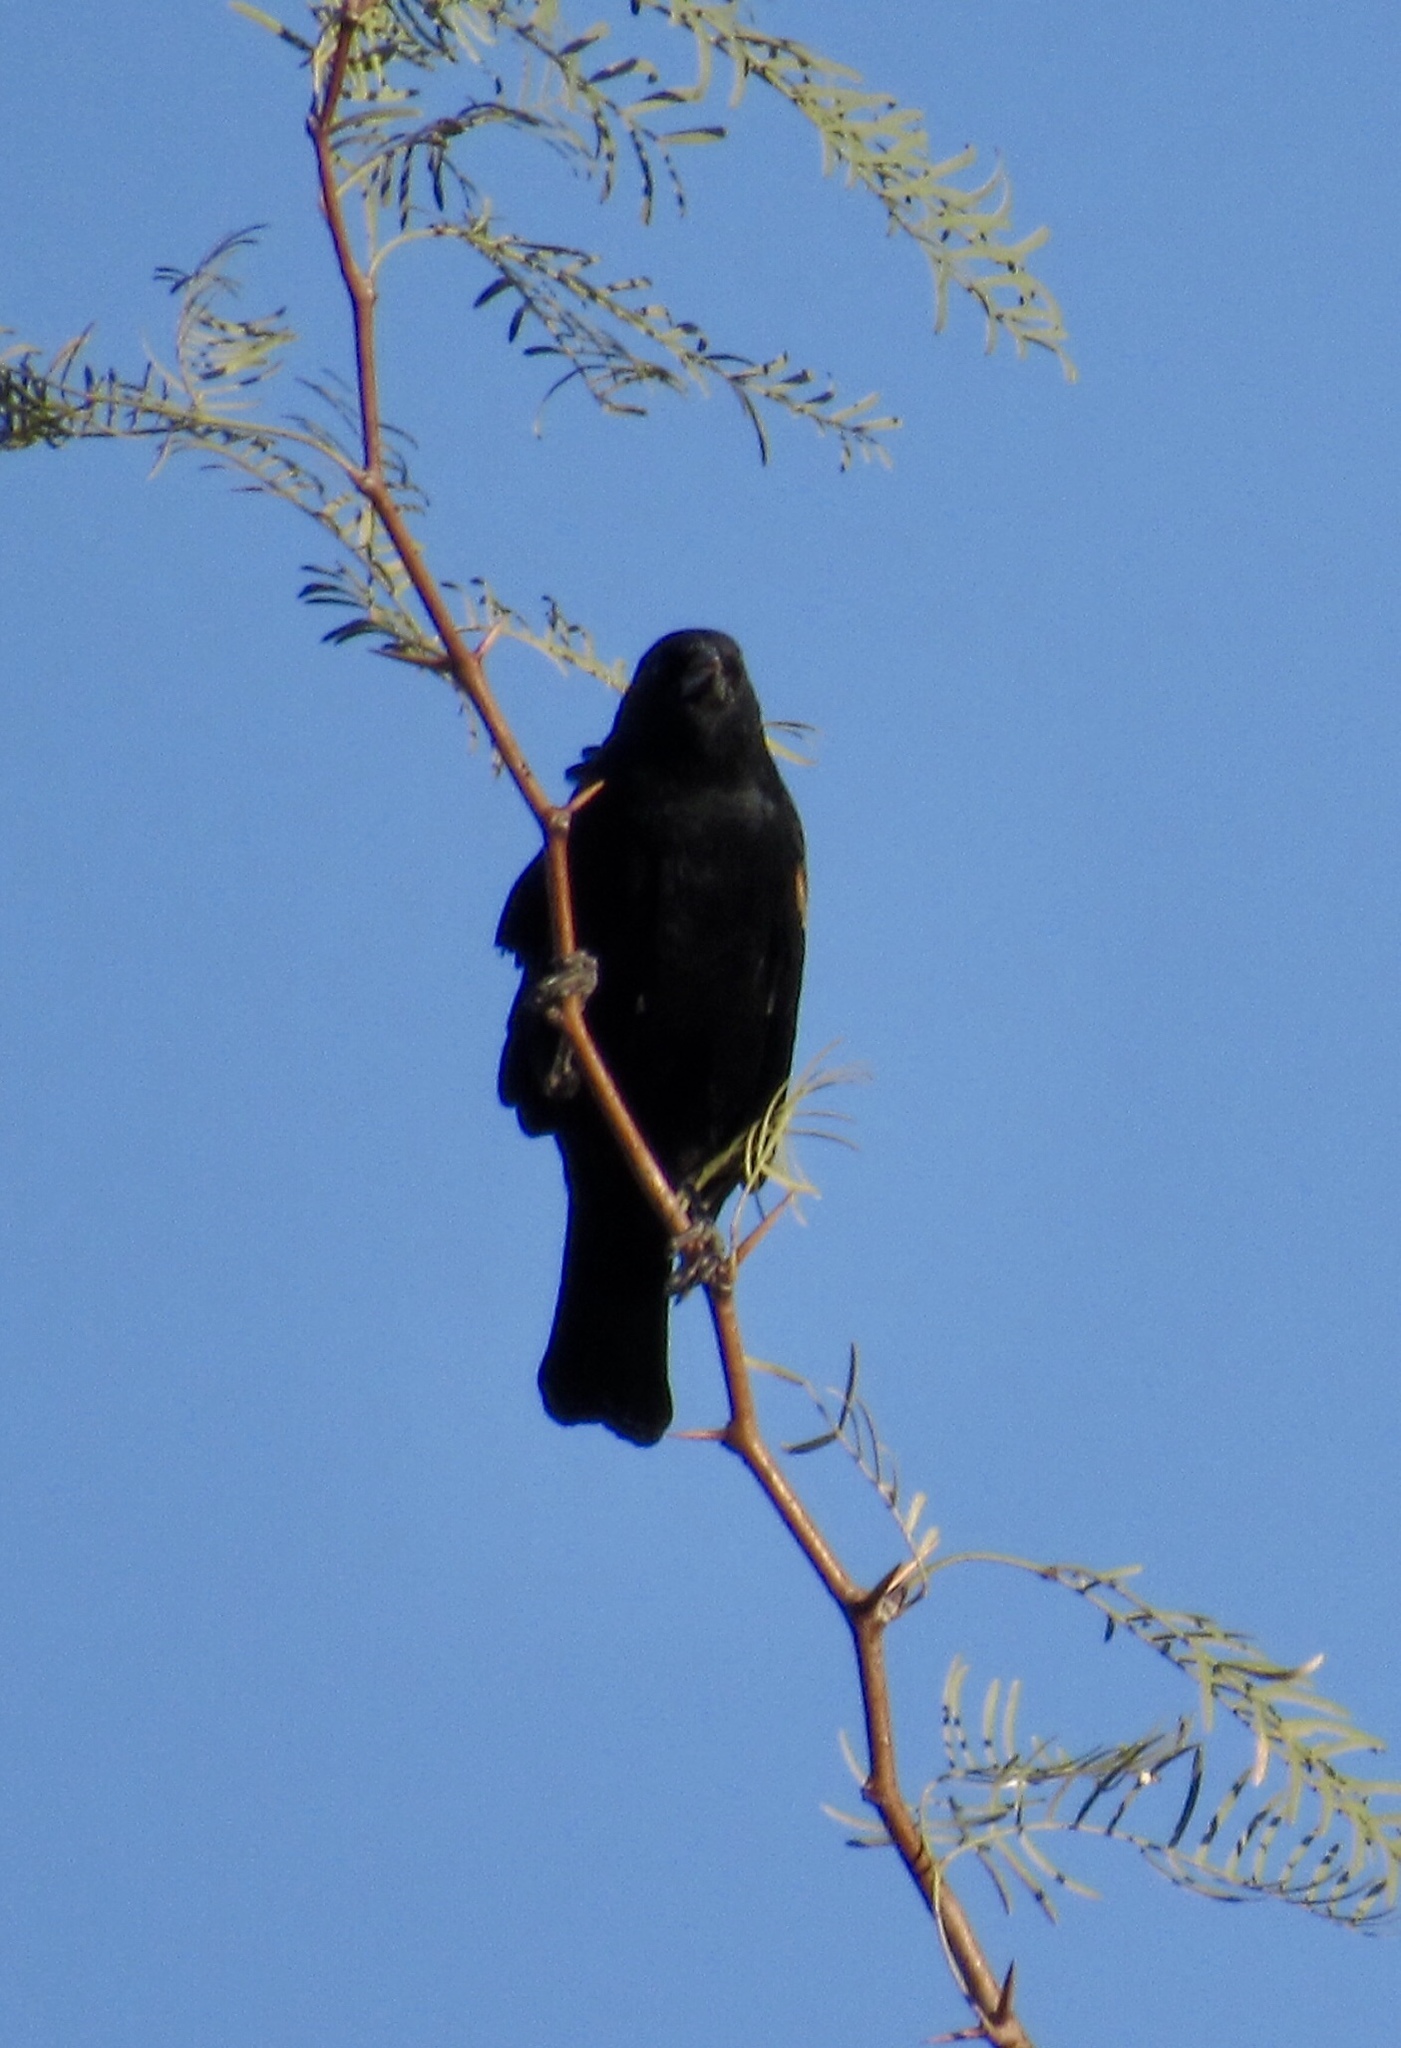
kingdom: Animalia
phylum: Chordata
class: Aves
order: Passeriformes
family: Icteridae
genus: Agelaius
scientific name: Agelaius phoeniceus
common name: Red-winged blackbird
